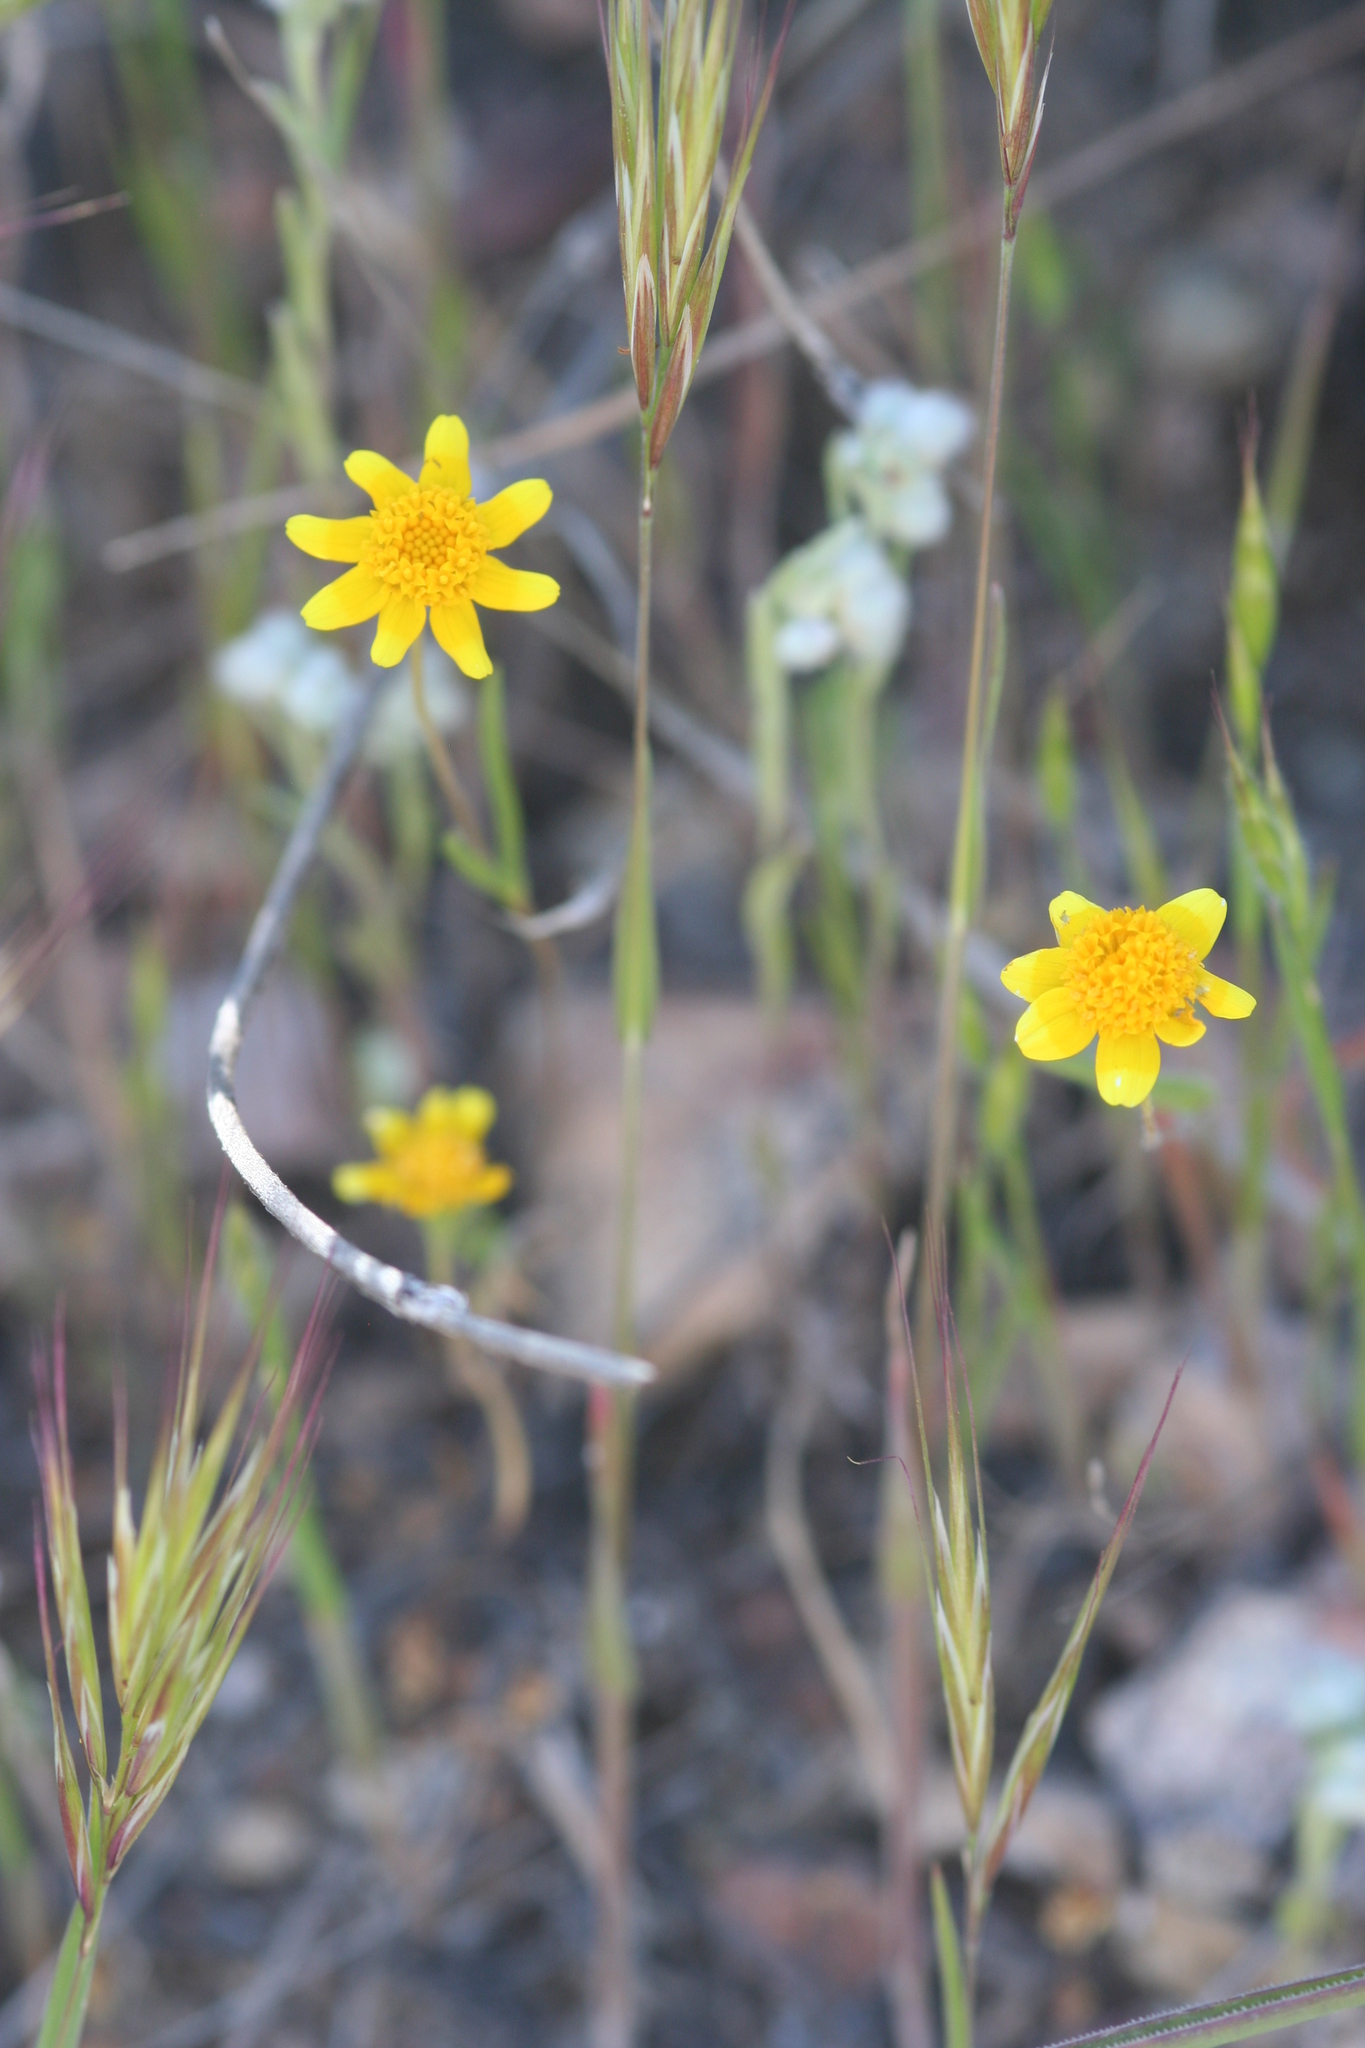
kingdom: Plantae
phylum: Tracheophyta
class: Magnoliopsida
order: Asterales
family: Asteraceae
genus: Lasthenia
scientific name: Lasthenia californica
